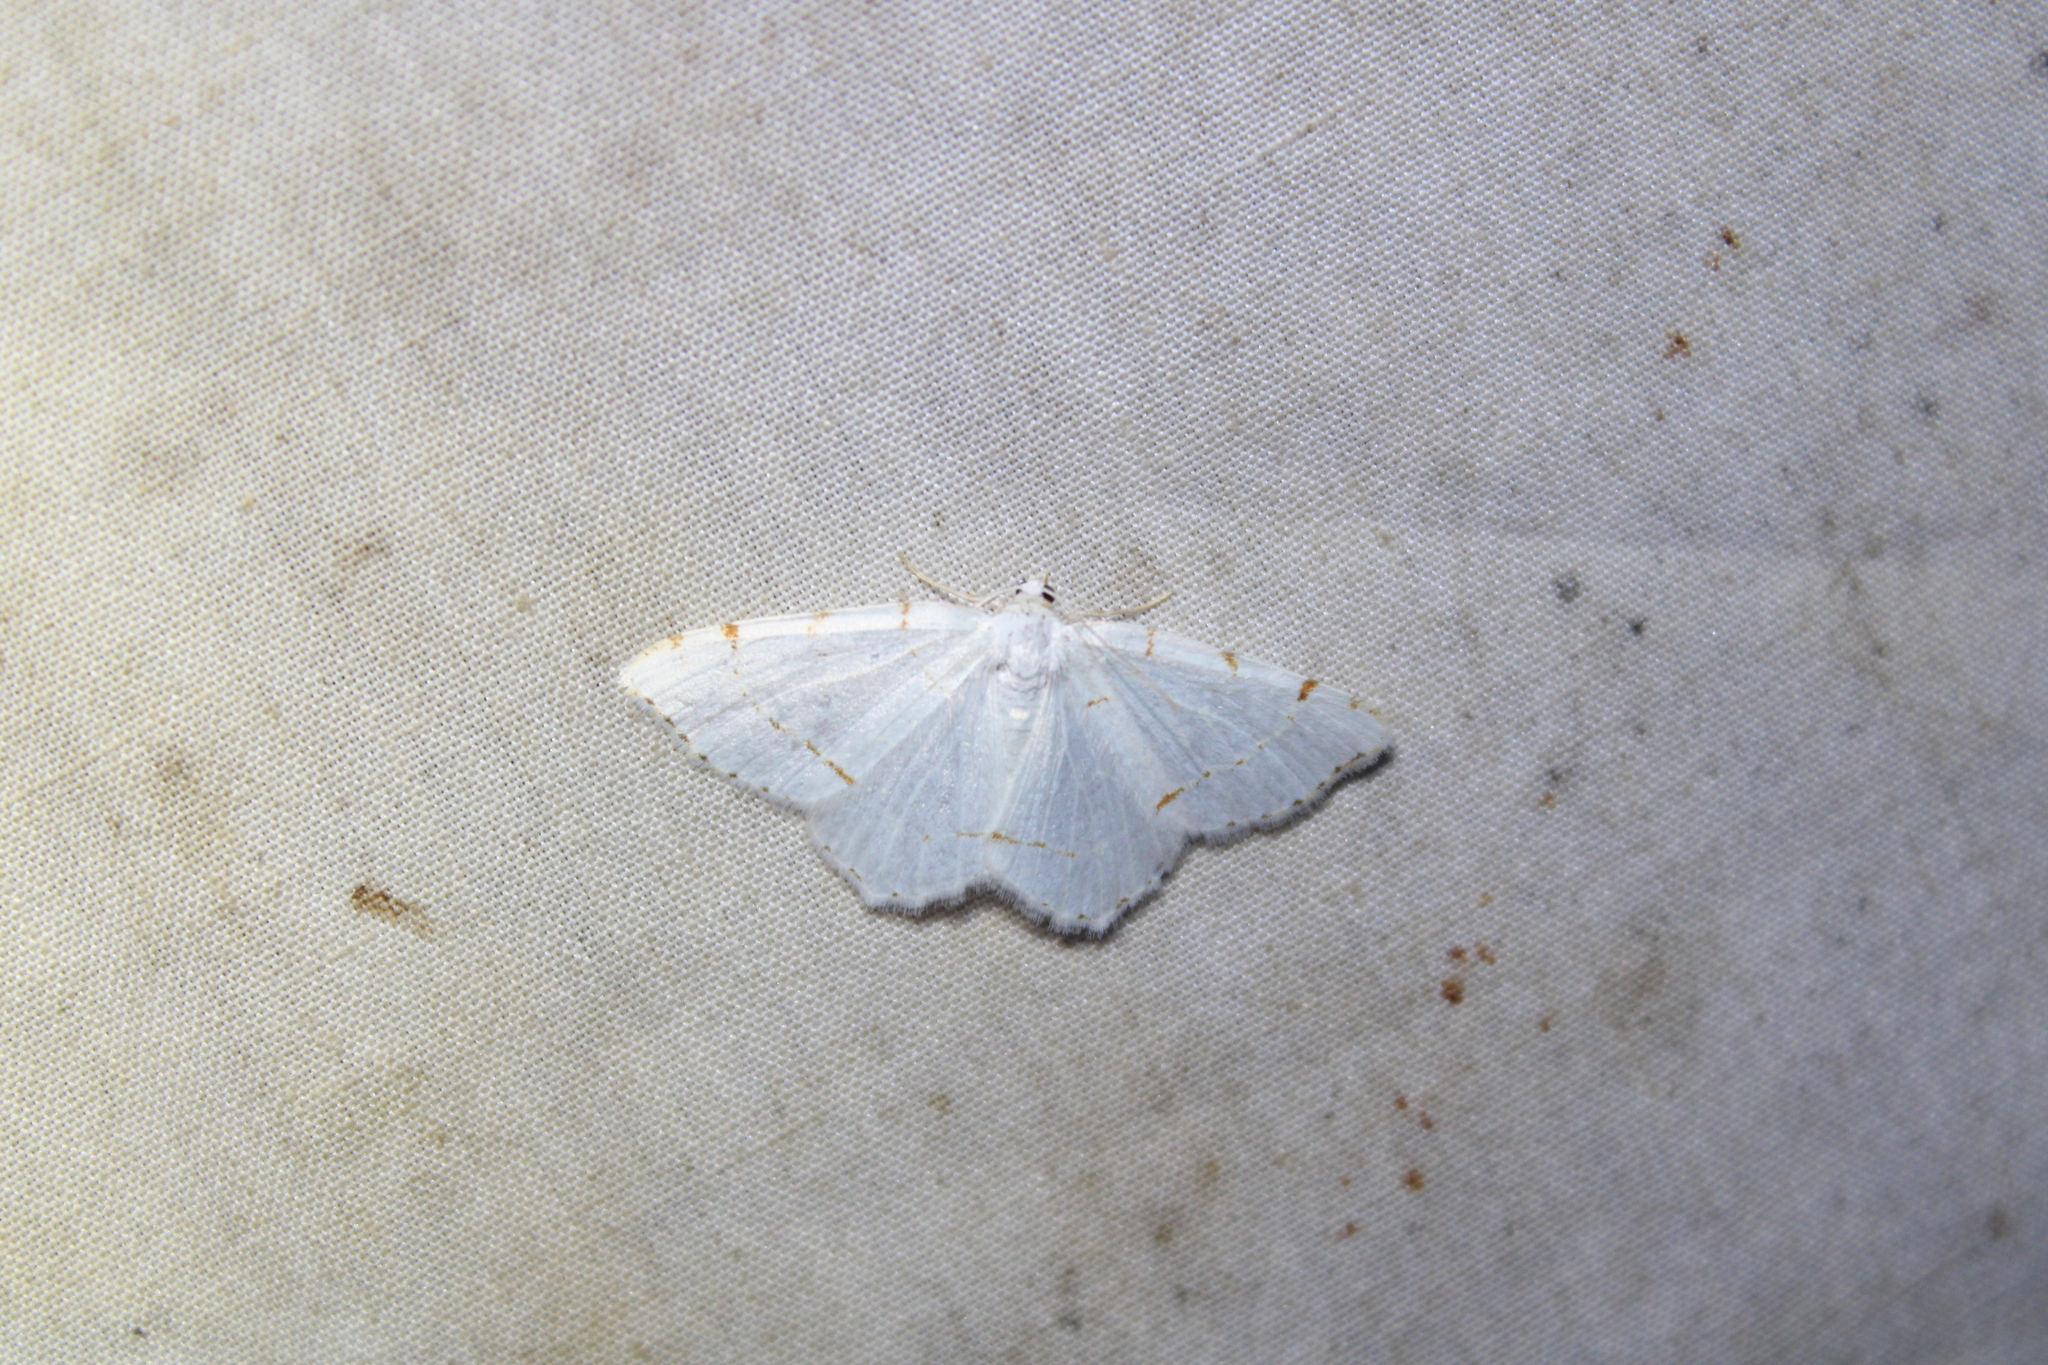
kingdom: Animalia
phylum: Arthropoda
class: Insecta
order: Lepidoptera
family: Geometridae
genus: Macaria
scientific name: Macaria pustularia
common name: Lesser maple spanworm moth
